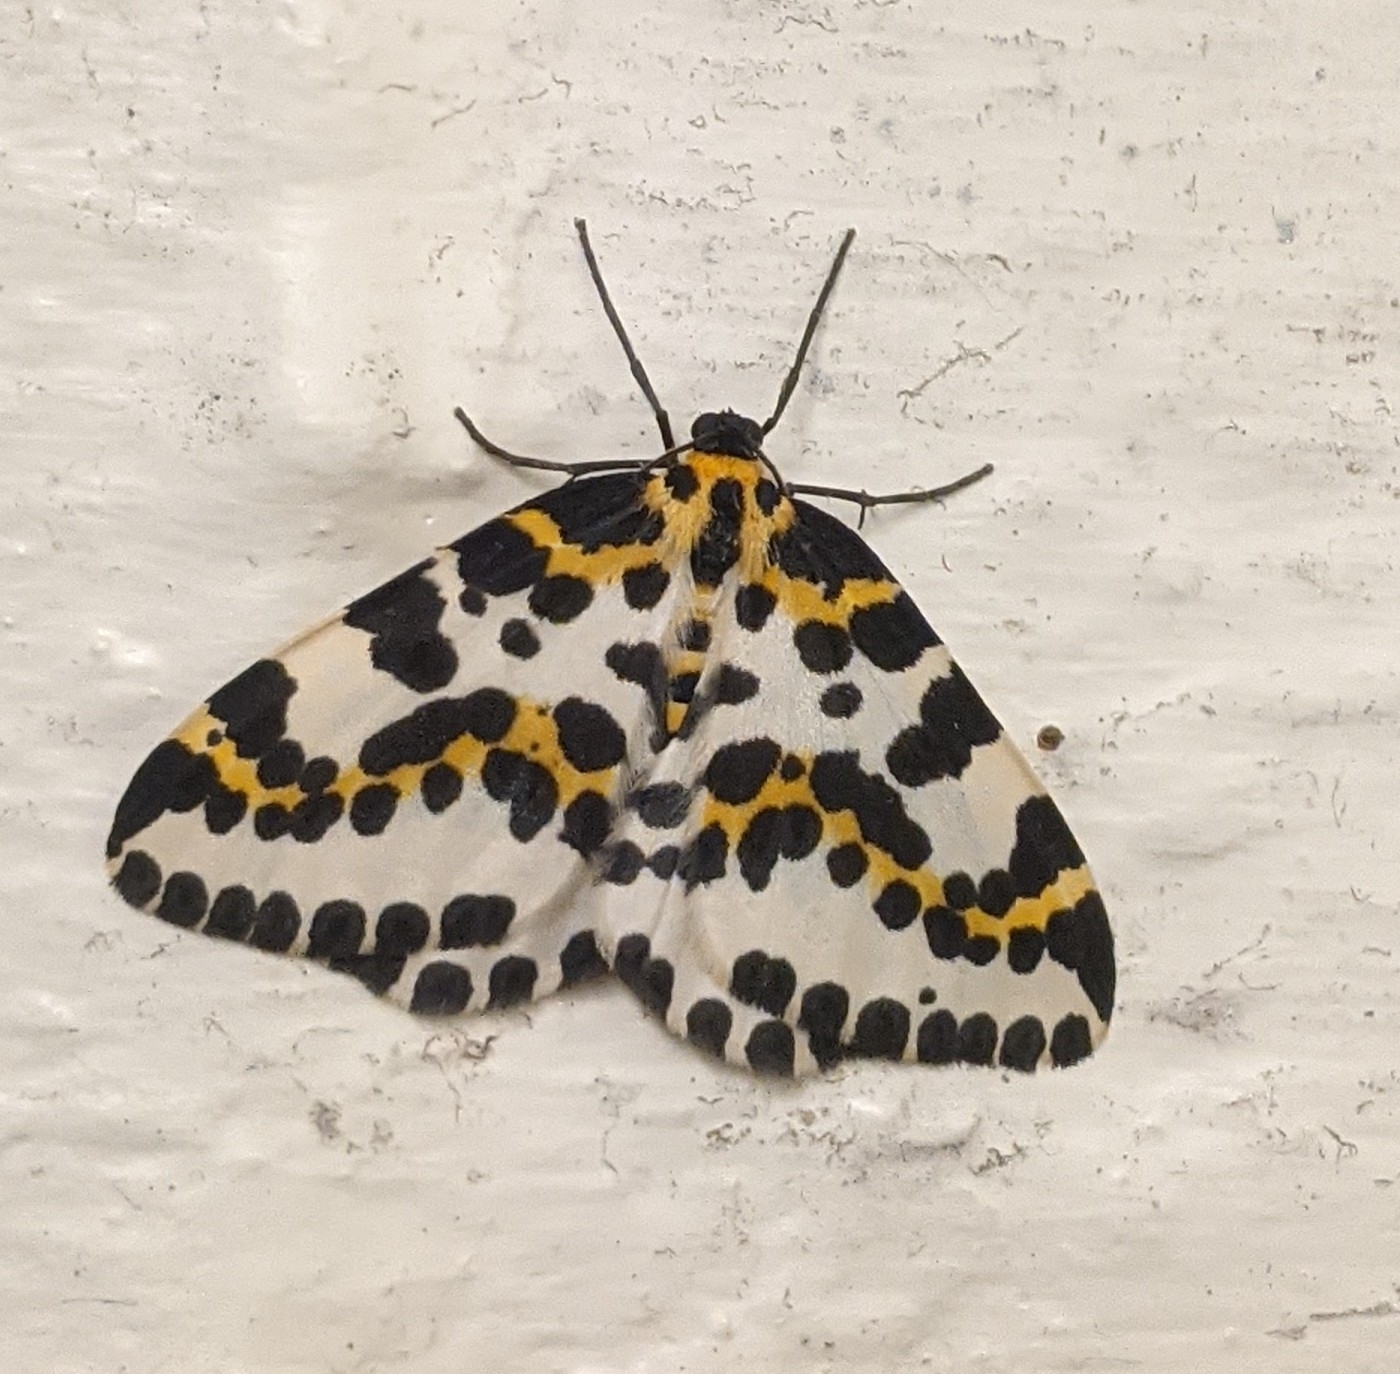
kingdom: Animalia
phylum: Arthropoda
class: Insecta
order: Lepidoptera
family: Geometridae
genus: Abraxas
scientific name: Abraxas grossulariata
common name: Magpie
